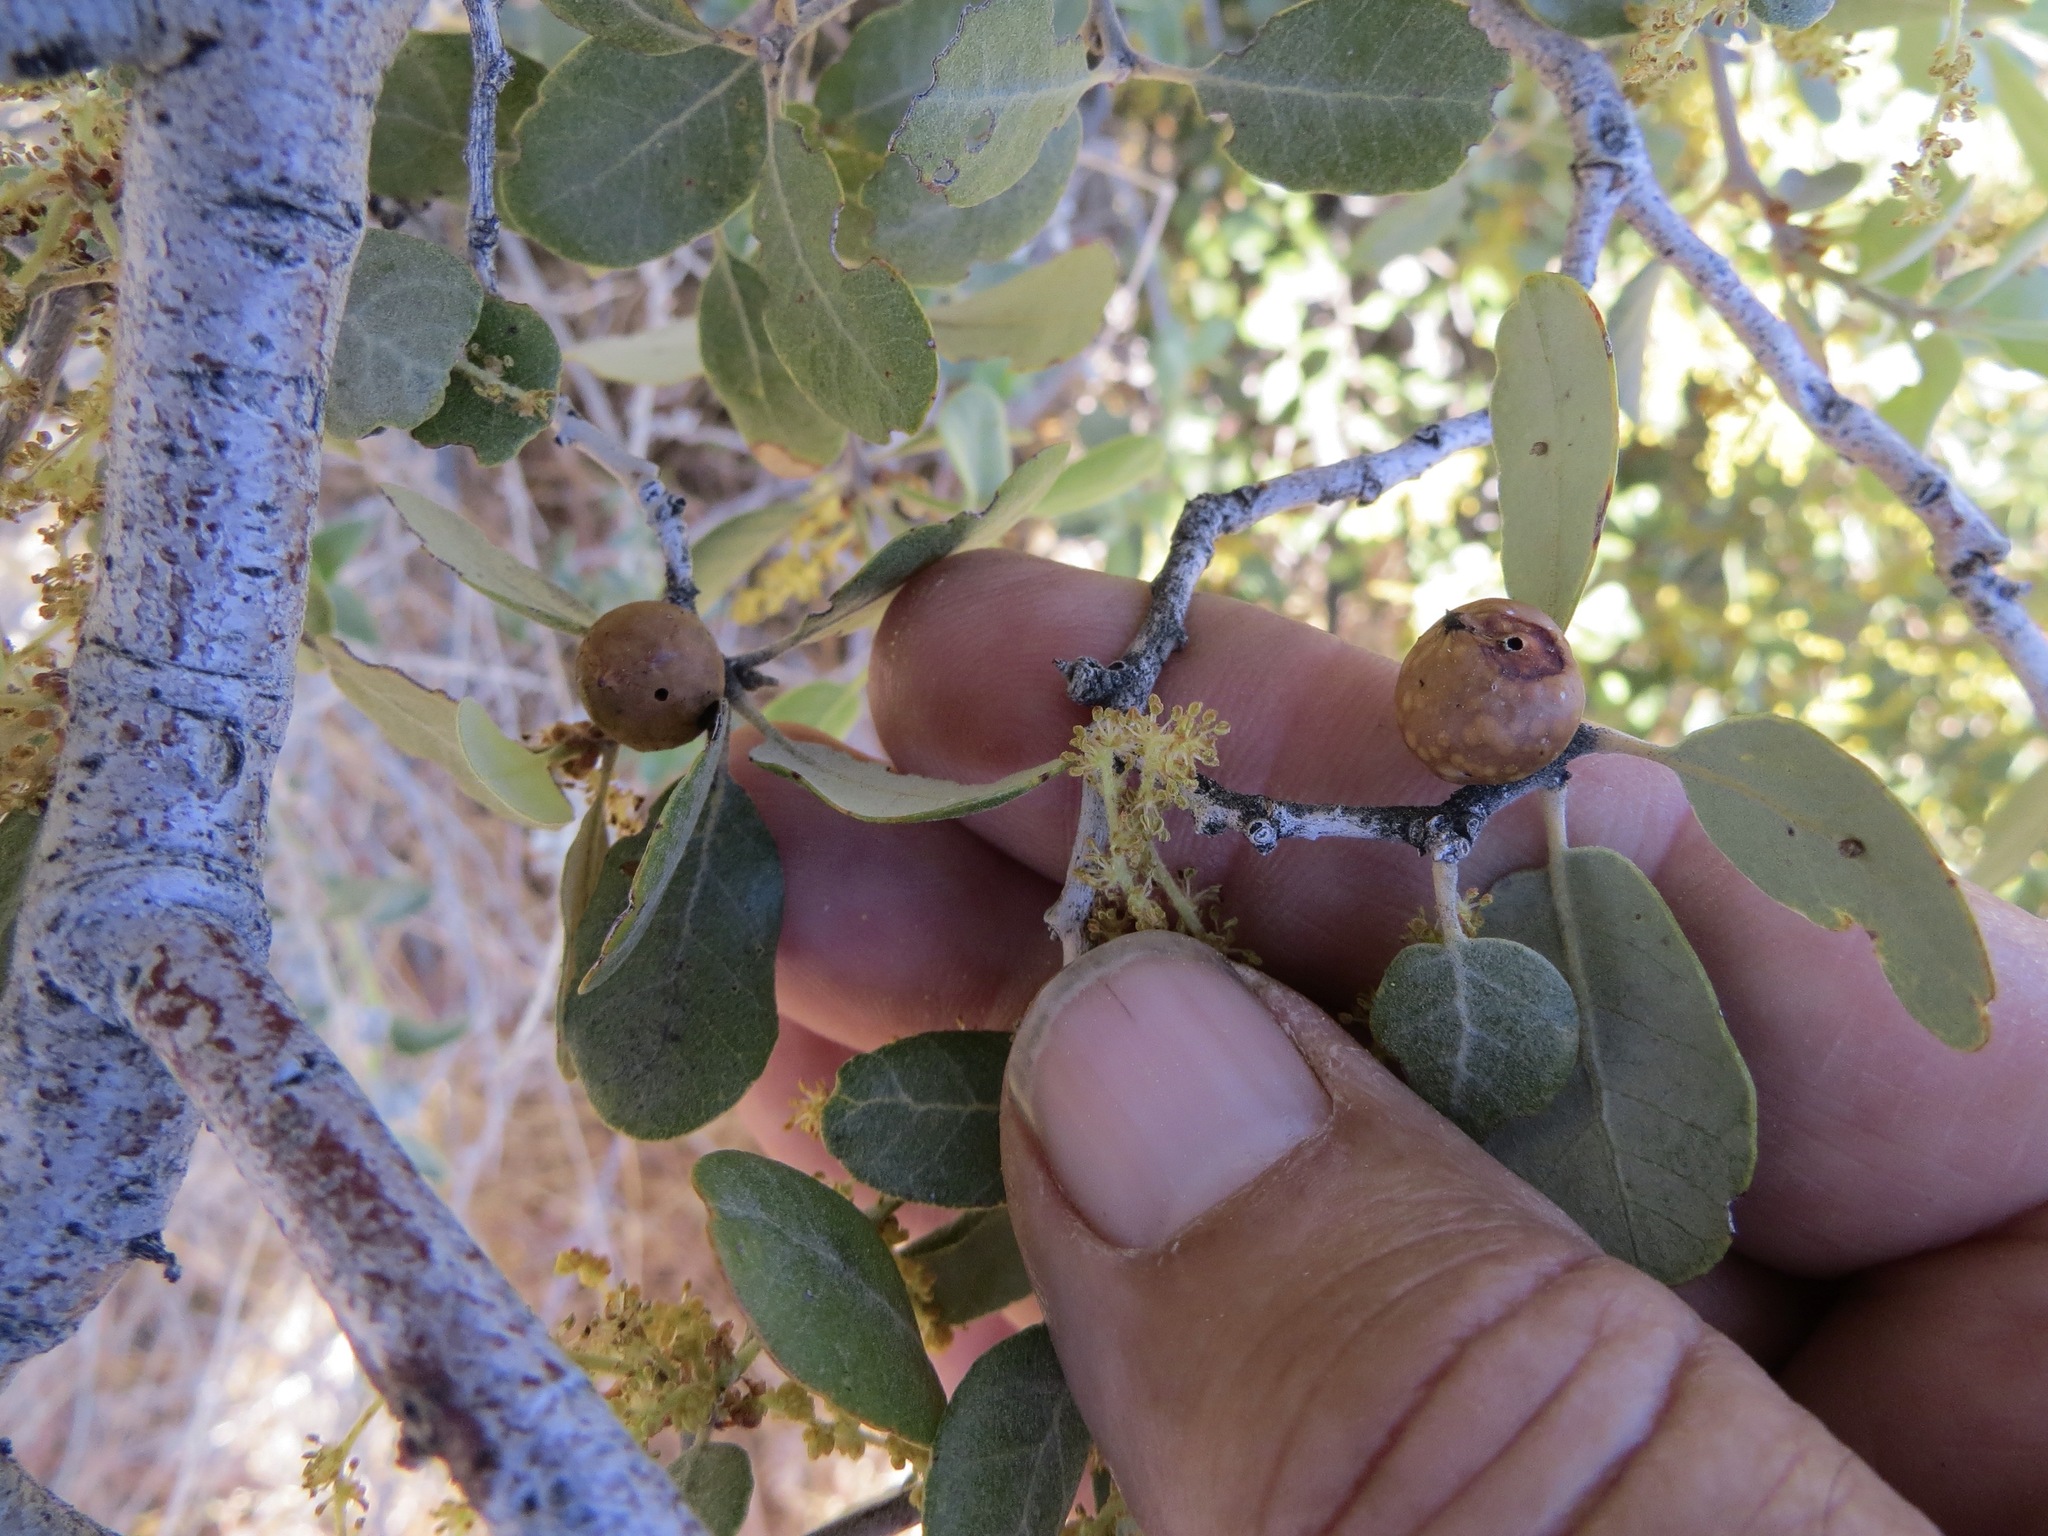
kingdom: Animalia
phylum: Arthropoda
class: Insecta
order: Hymenoptera
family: Cynipidae
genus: Burnettweldia
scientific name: Burnettweldia
